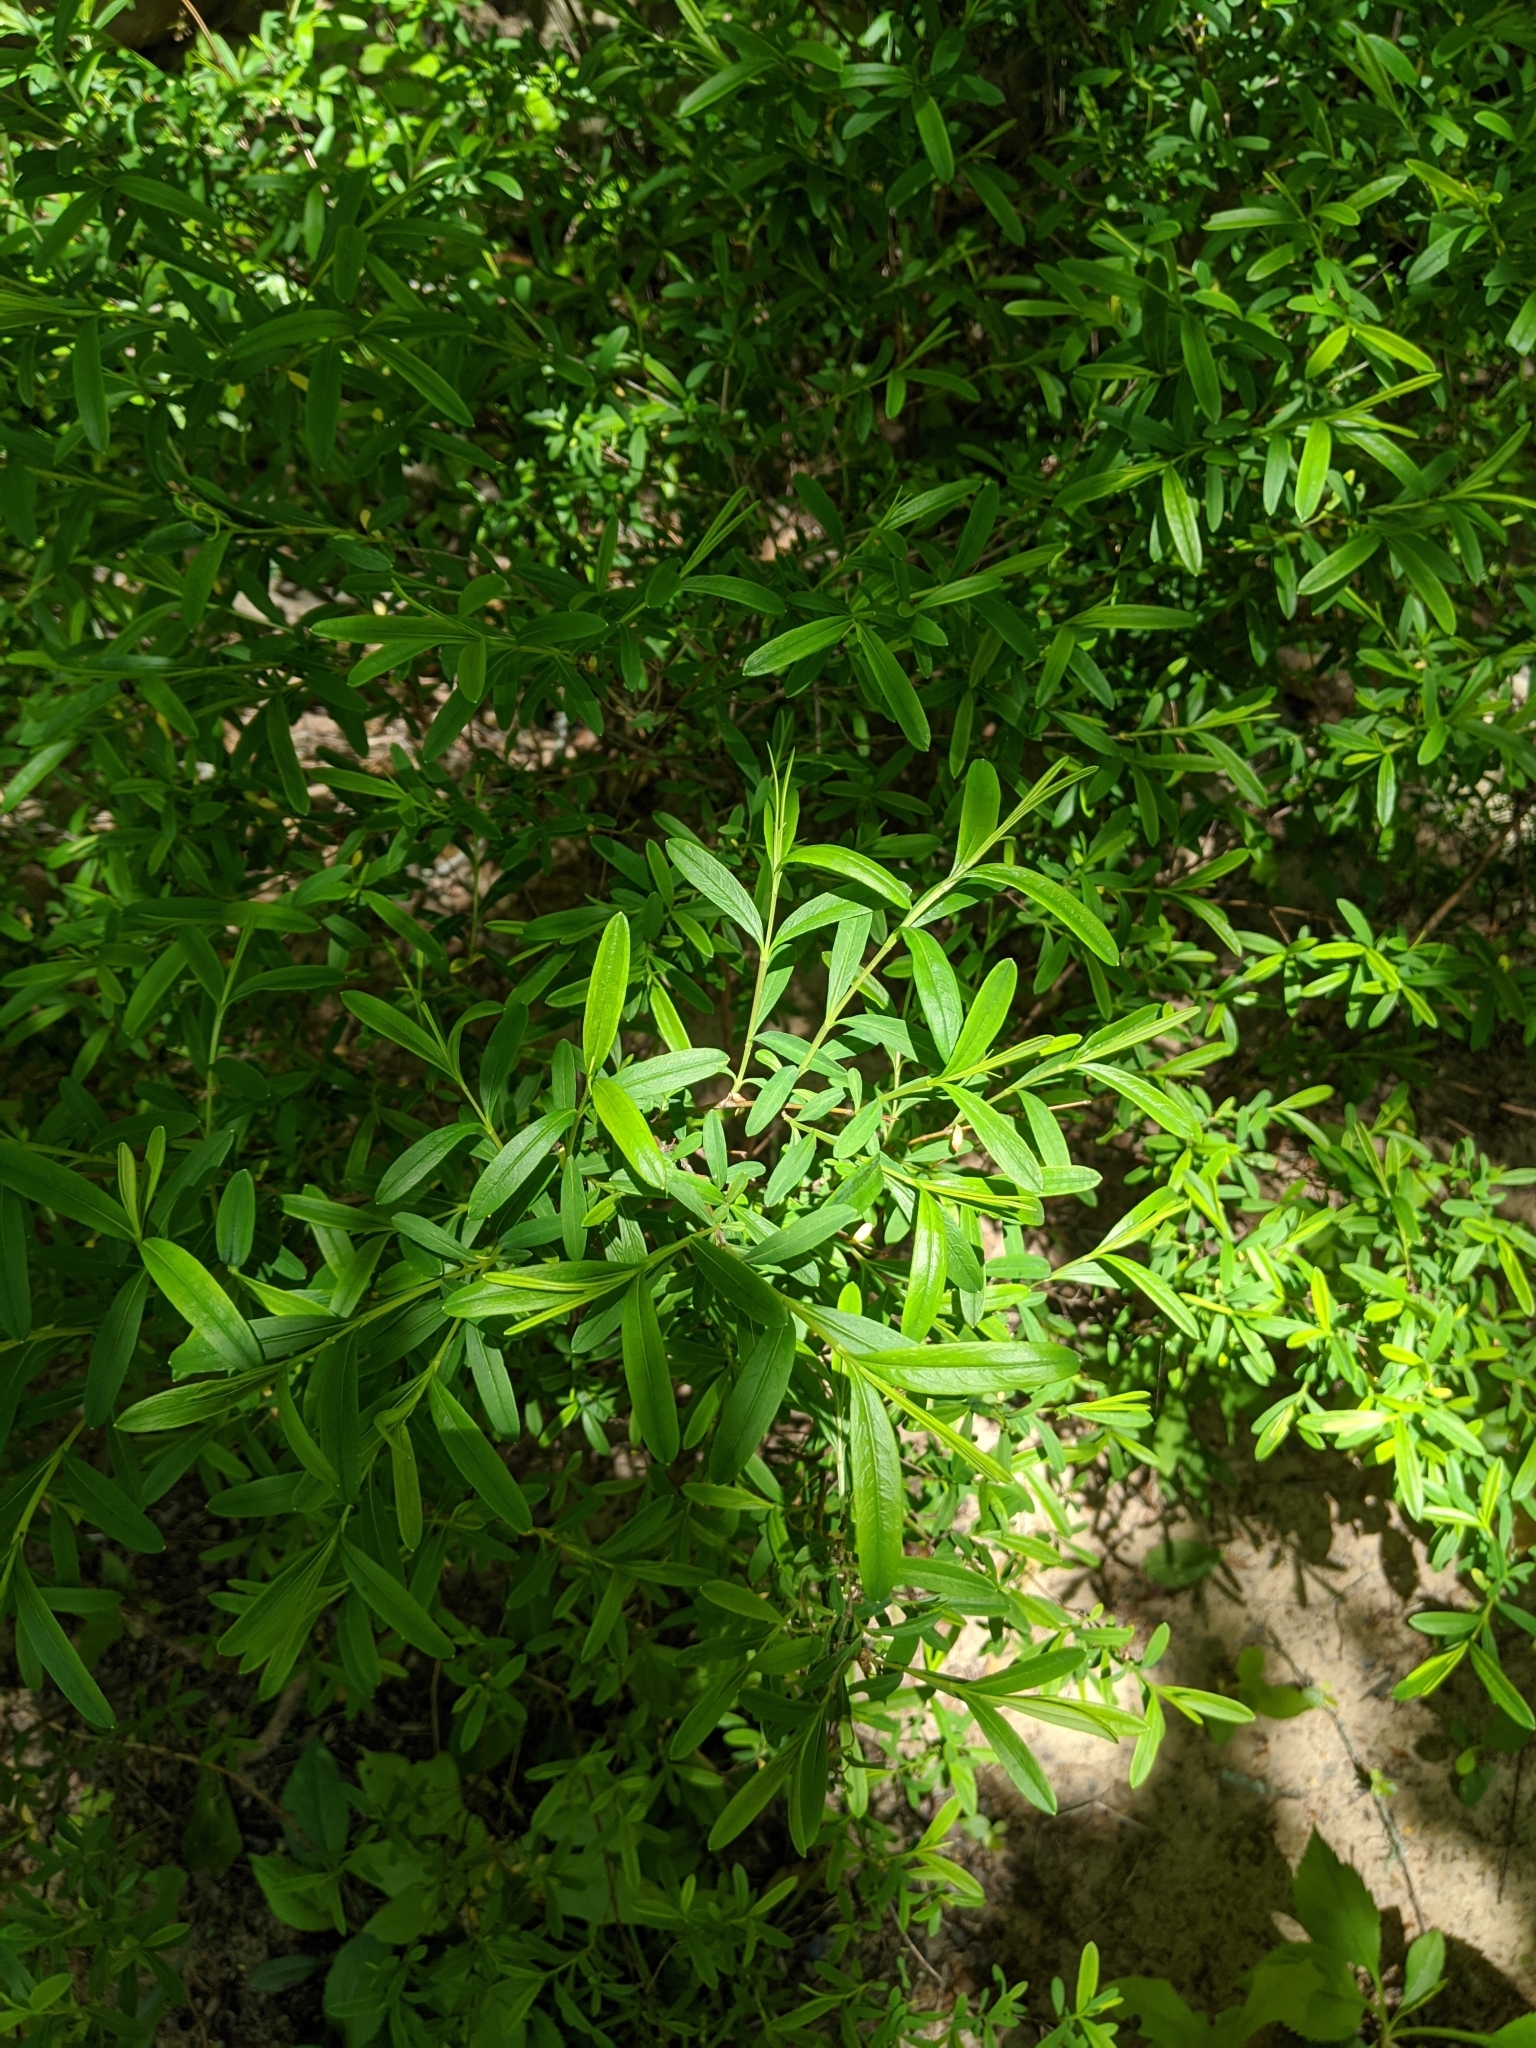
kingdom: Plantae
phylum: Tracheophyta
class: Magnoliopsida
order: Malpighiales
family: Hypericaceae
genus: Hypericum
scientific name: Hypericum prolificum
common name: Shrubby st. john's-wort
